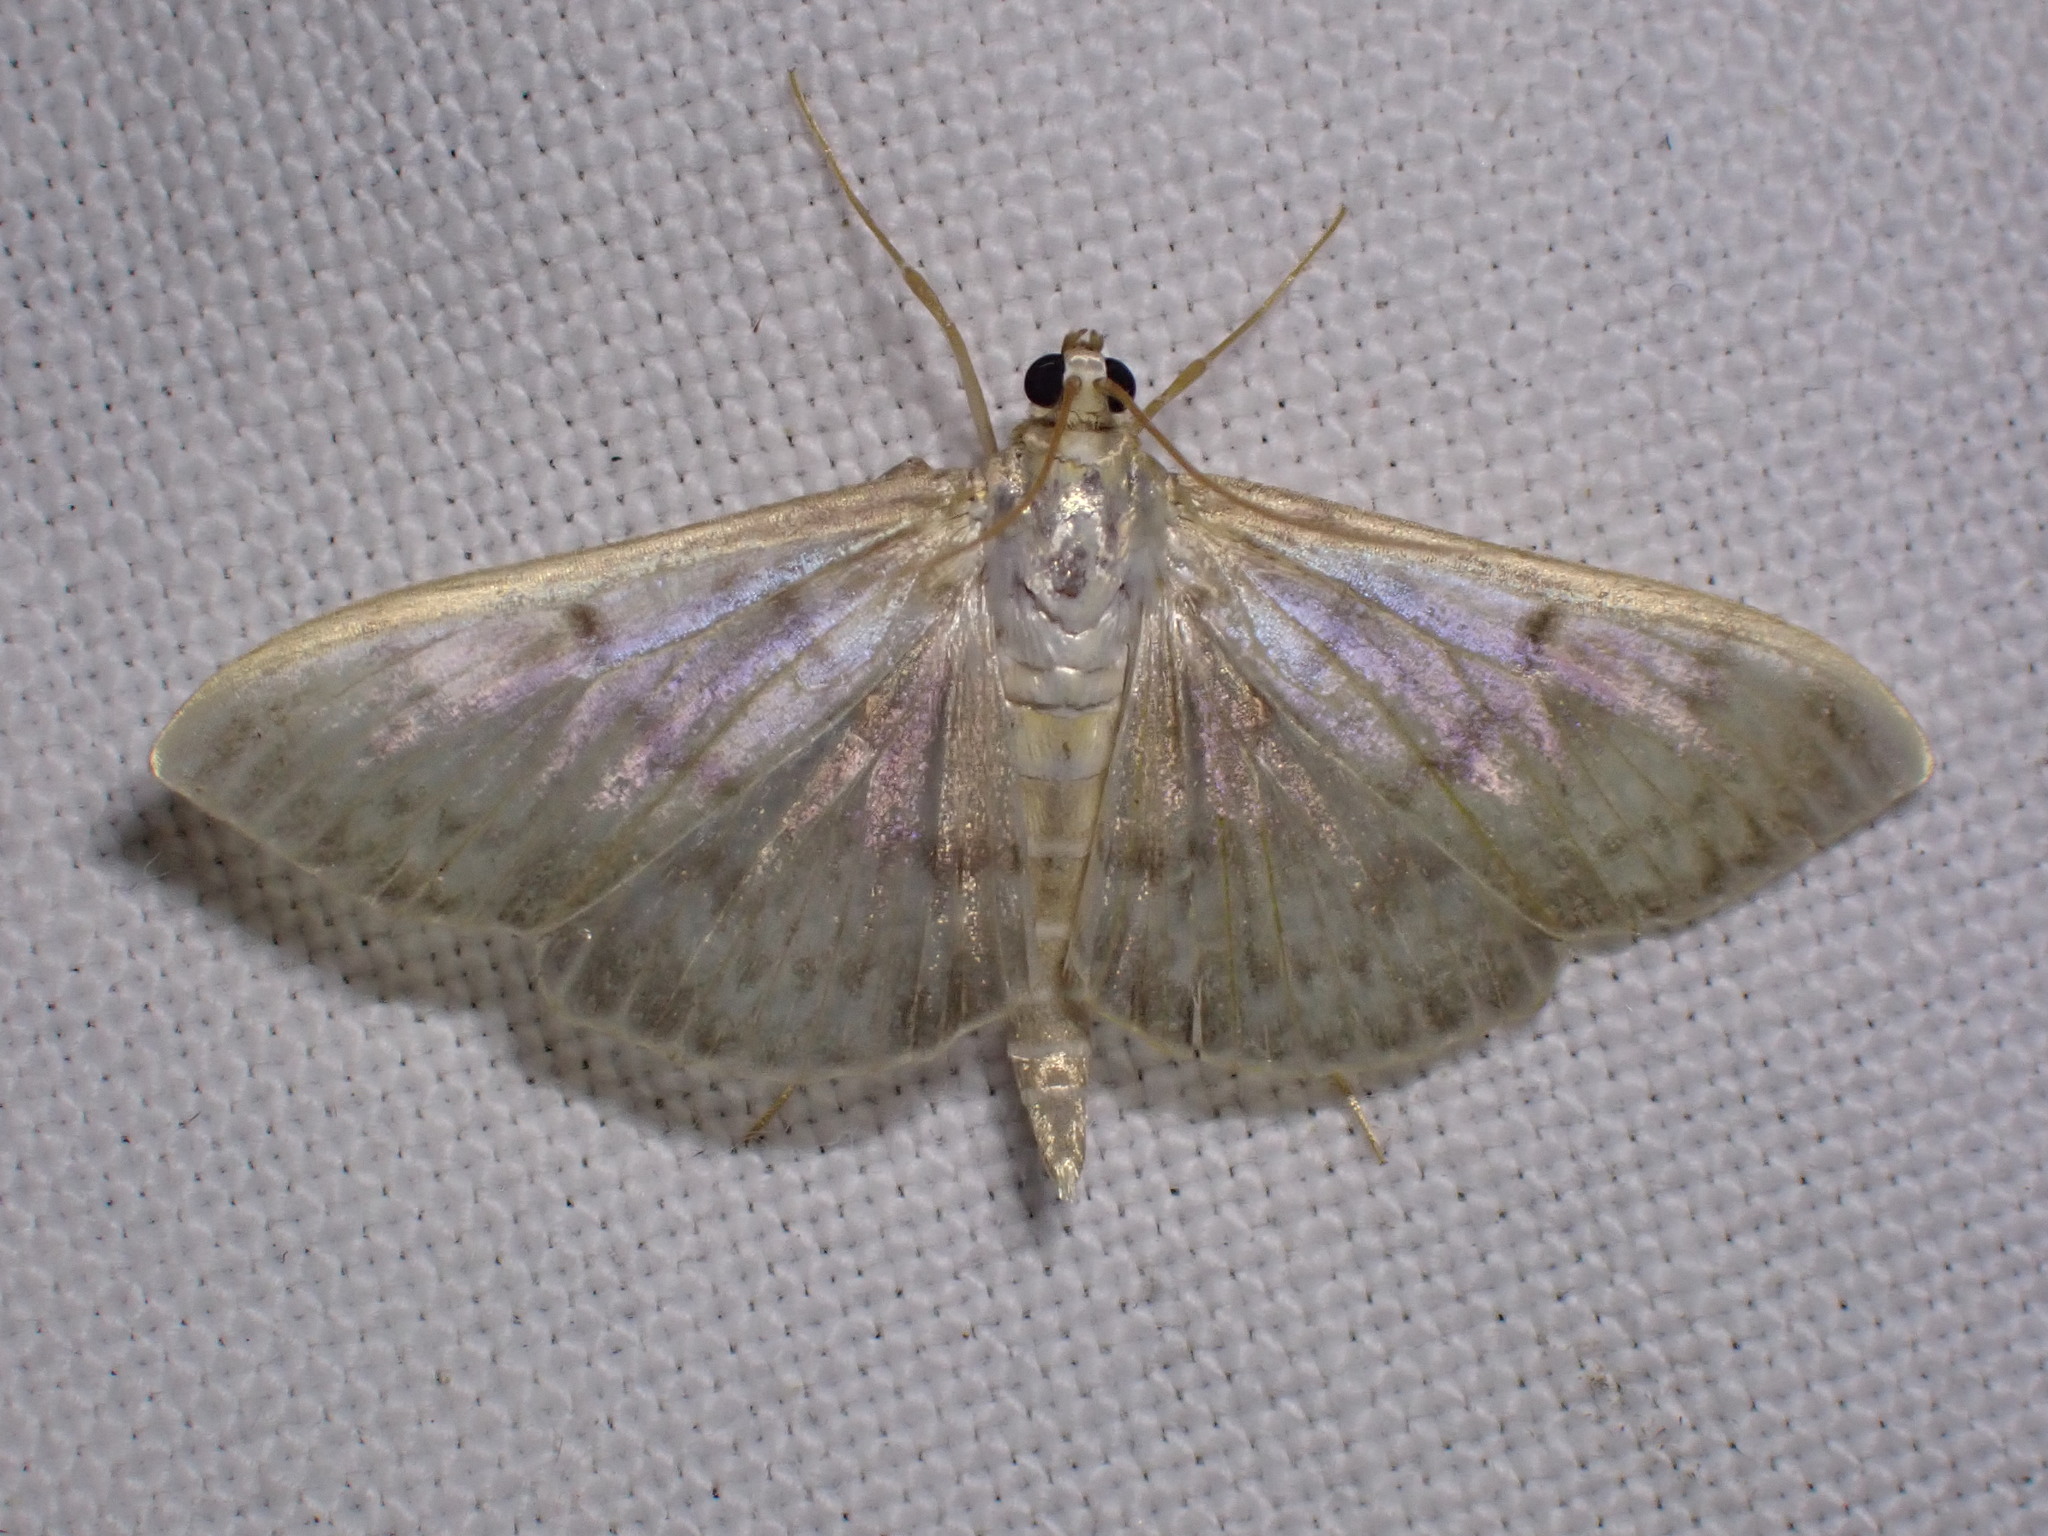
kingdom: Animalia
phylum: Arthropoda
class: Insecta
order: Lepidoptera
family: Crambidae
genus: Patania
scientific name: Patania ruralis
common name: Mother of pearl
